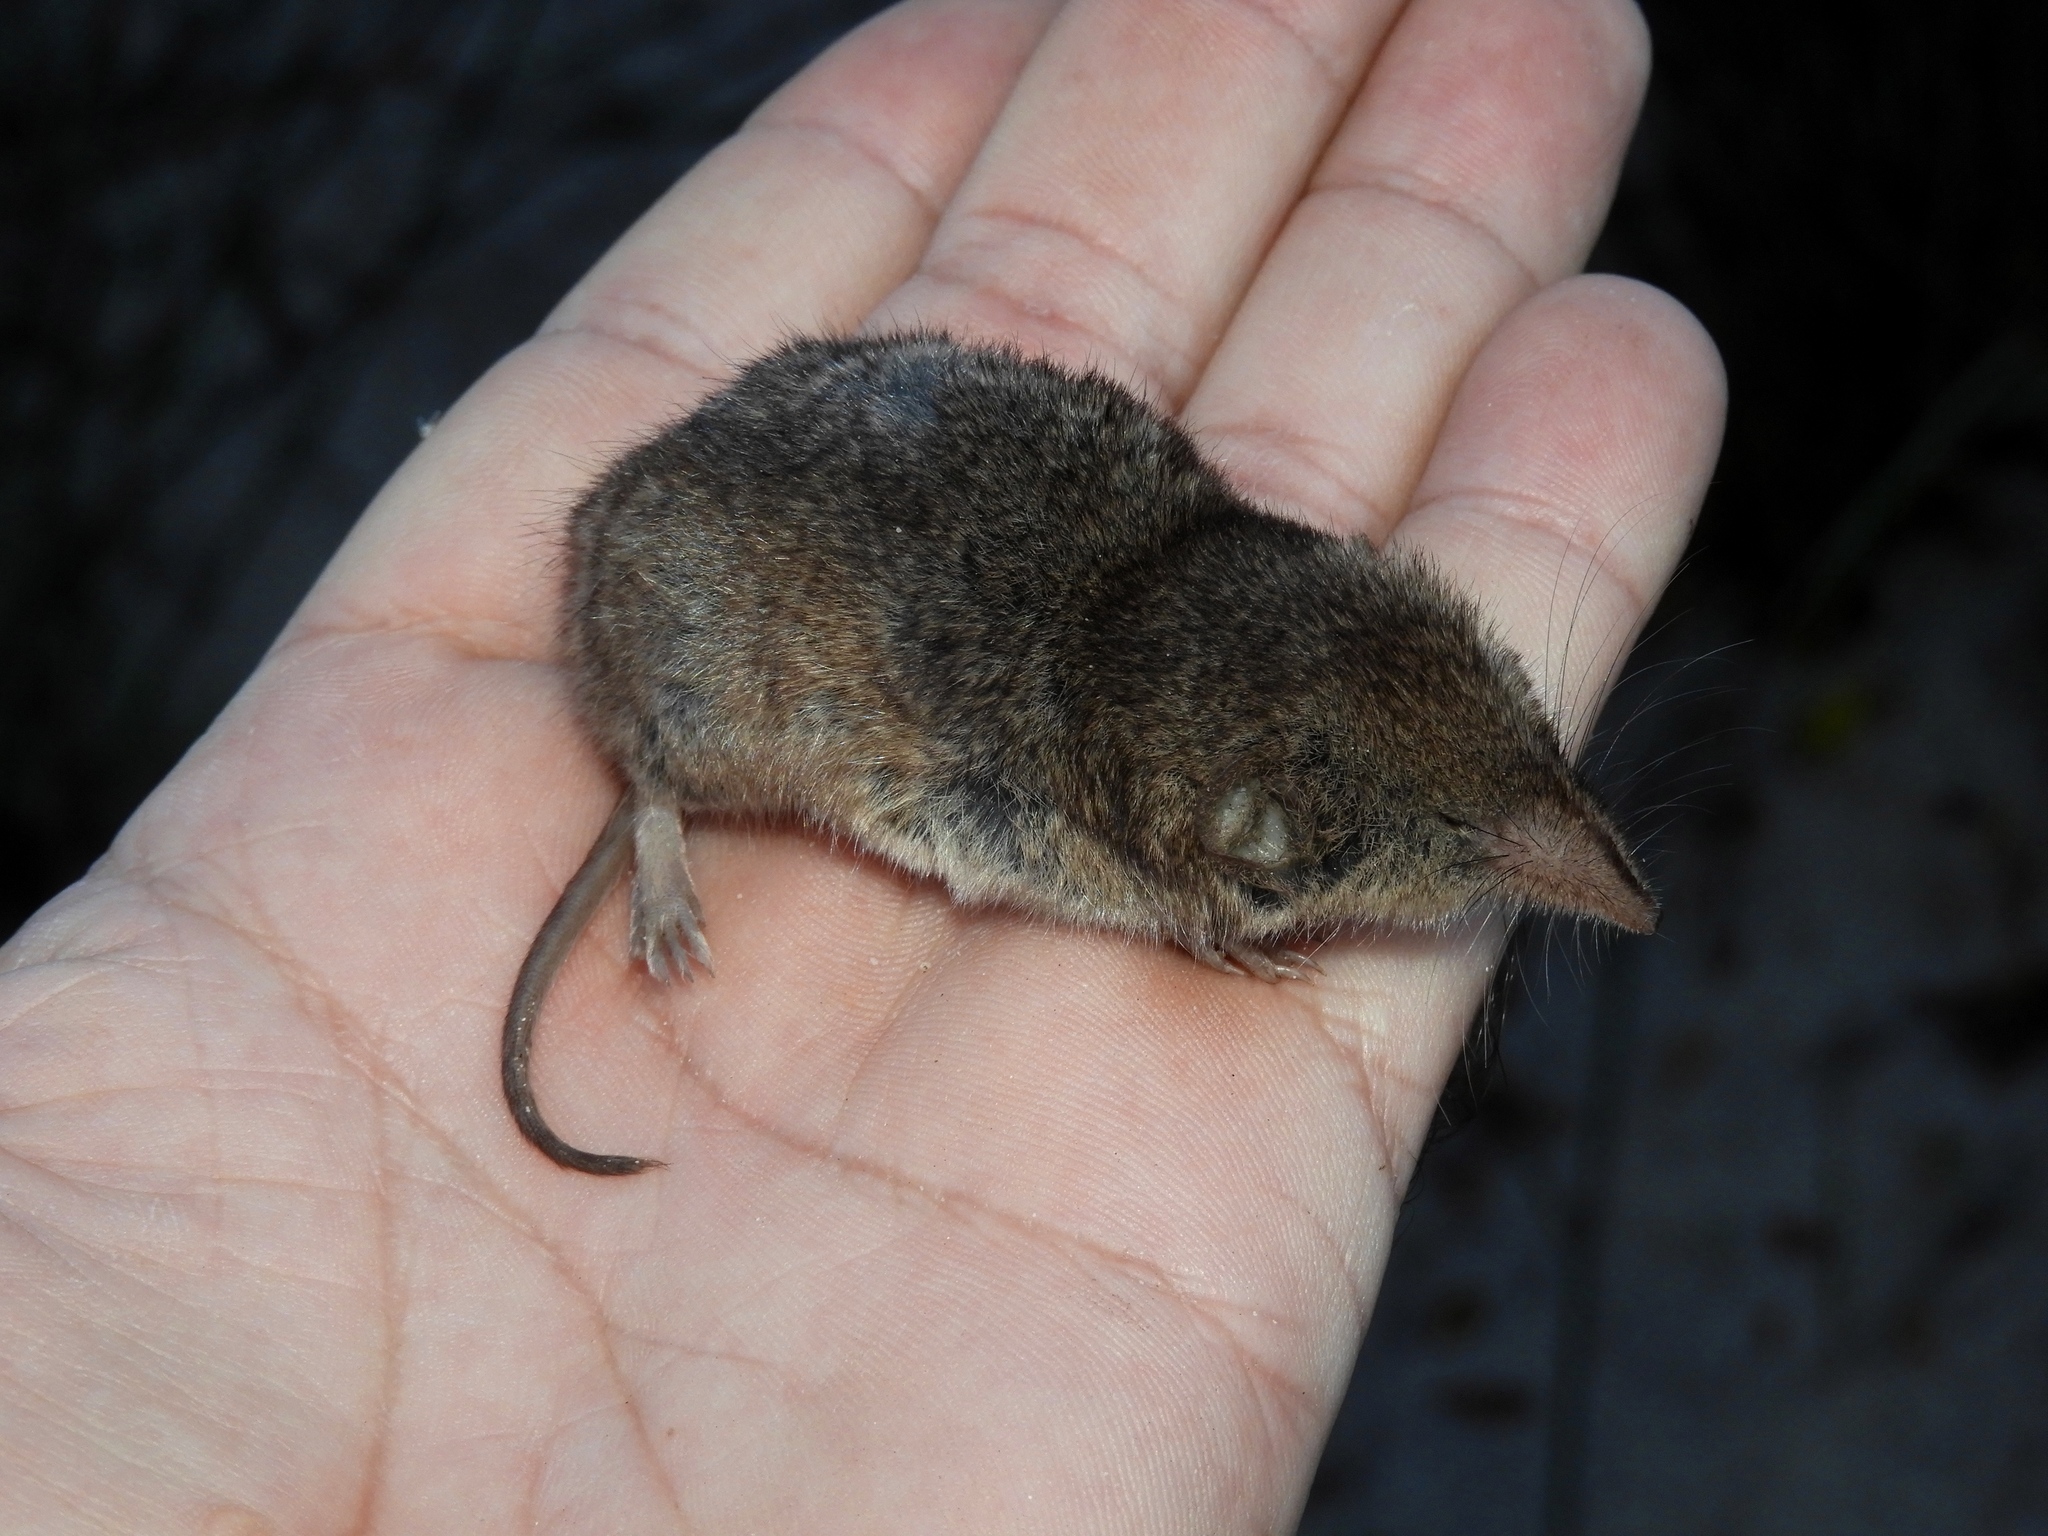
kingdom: Animalia
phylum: Chordata
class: Mammalia
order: Soricomorpha
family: Soricidae
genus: Myosorex
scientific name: Myosorex varius
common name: Forest shrew
